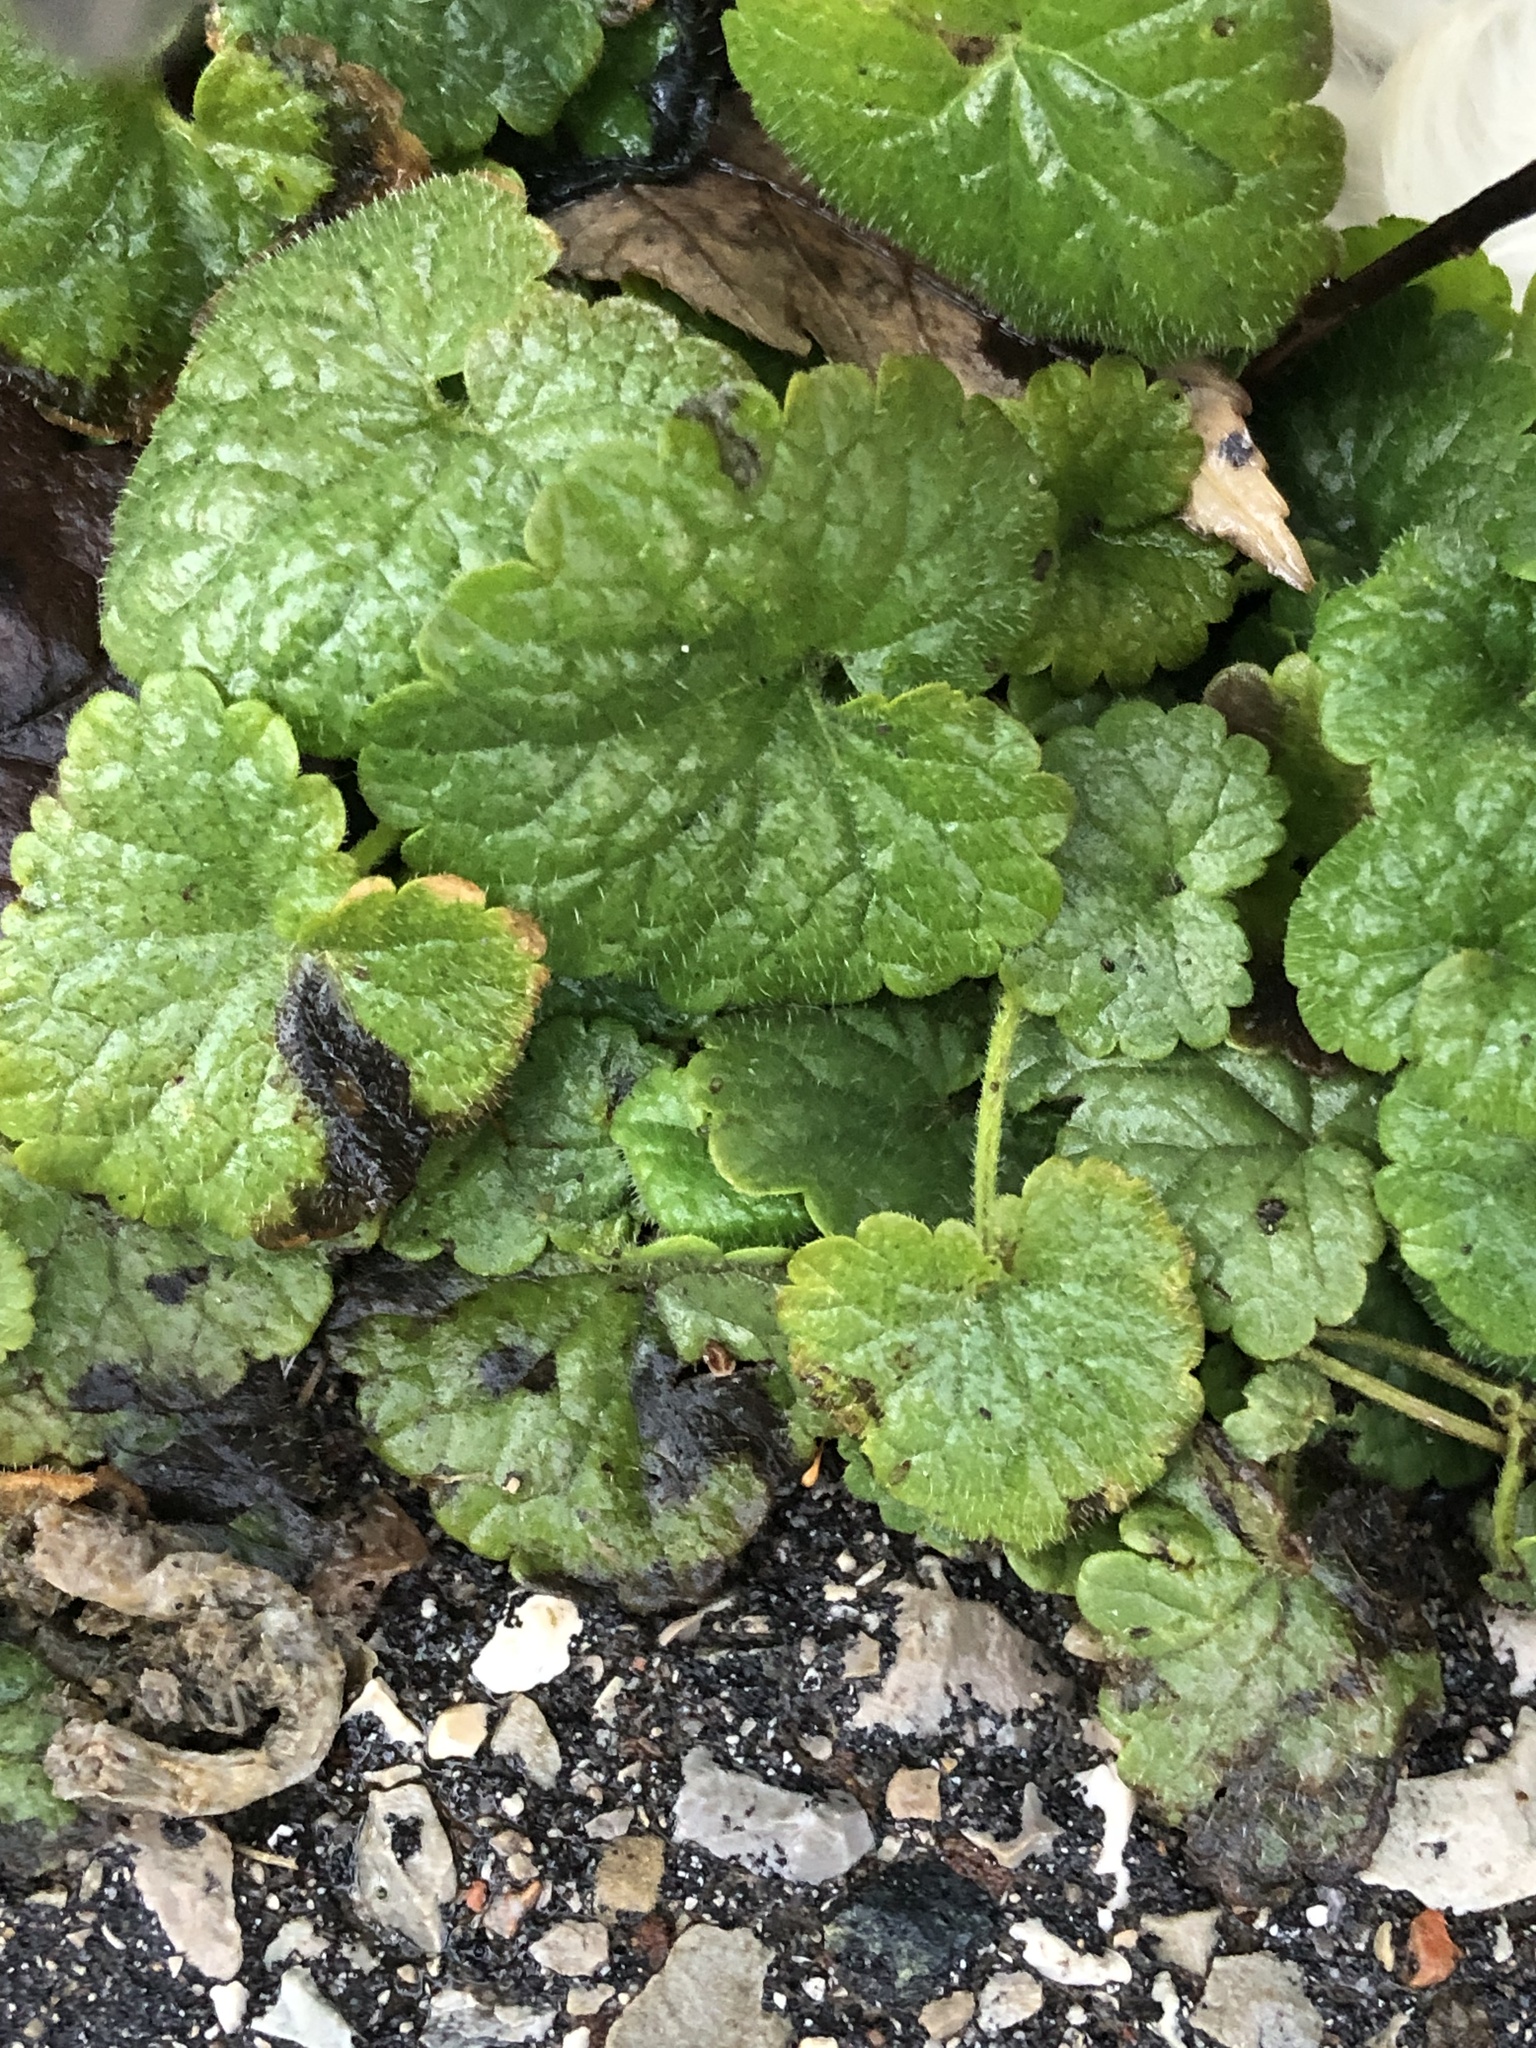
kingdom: Plantae
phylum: Tracheophyta
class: Magnoliopsida
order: Lamiales
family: Lamiaceae
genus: Glechoma
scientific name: Glechoma hederacea
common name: Ground ivy
